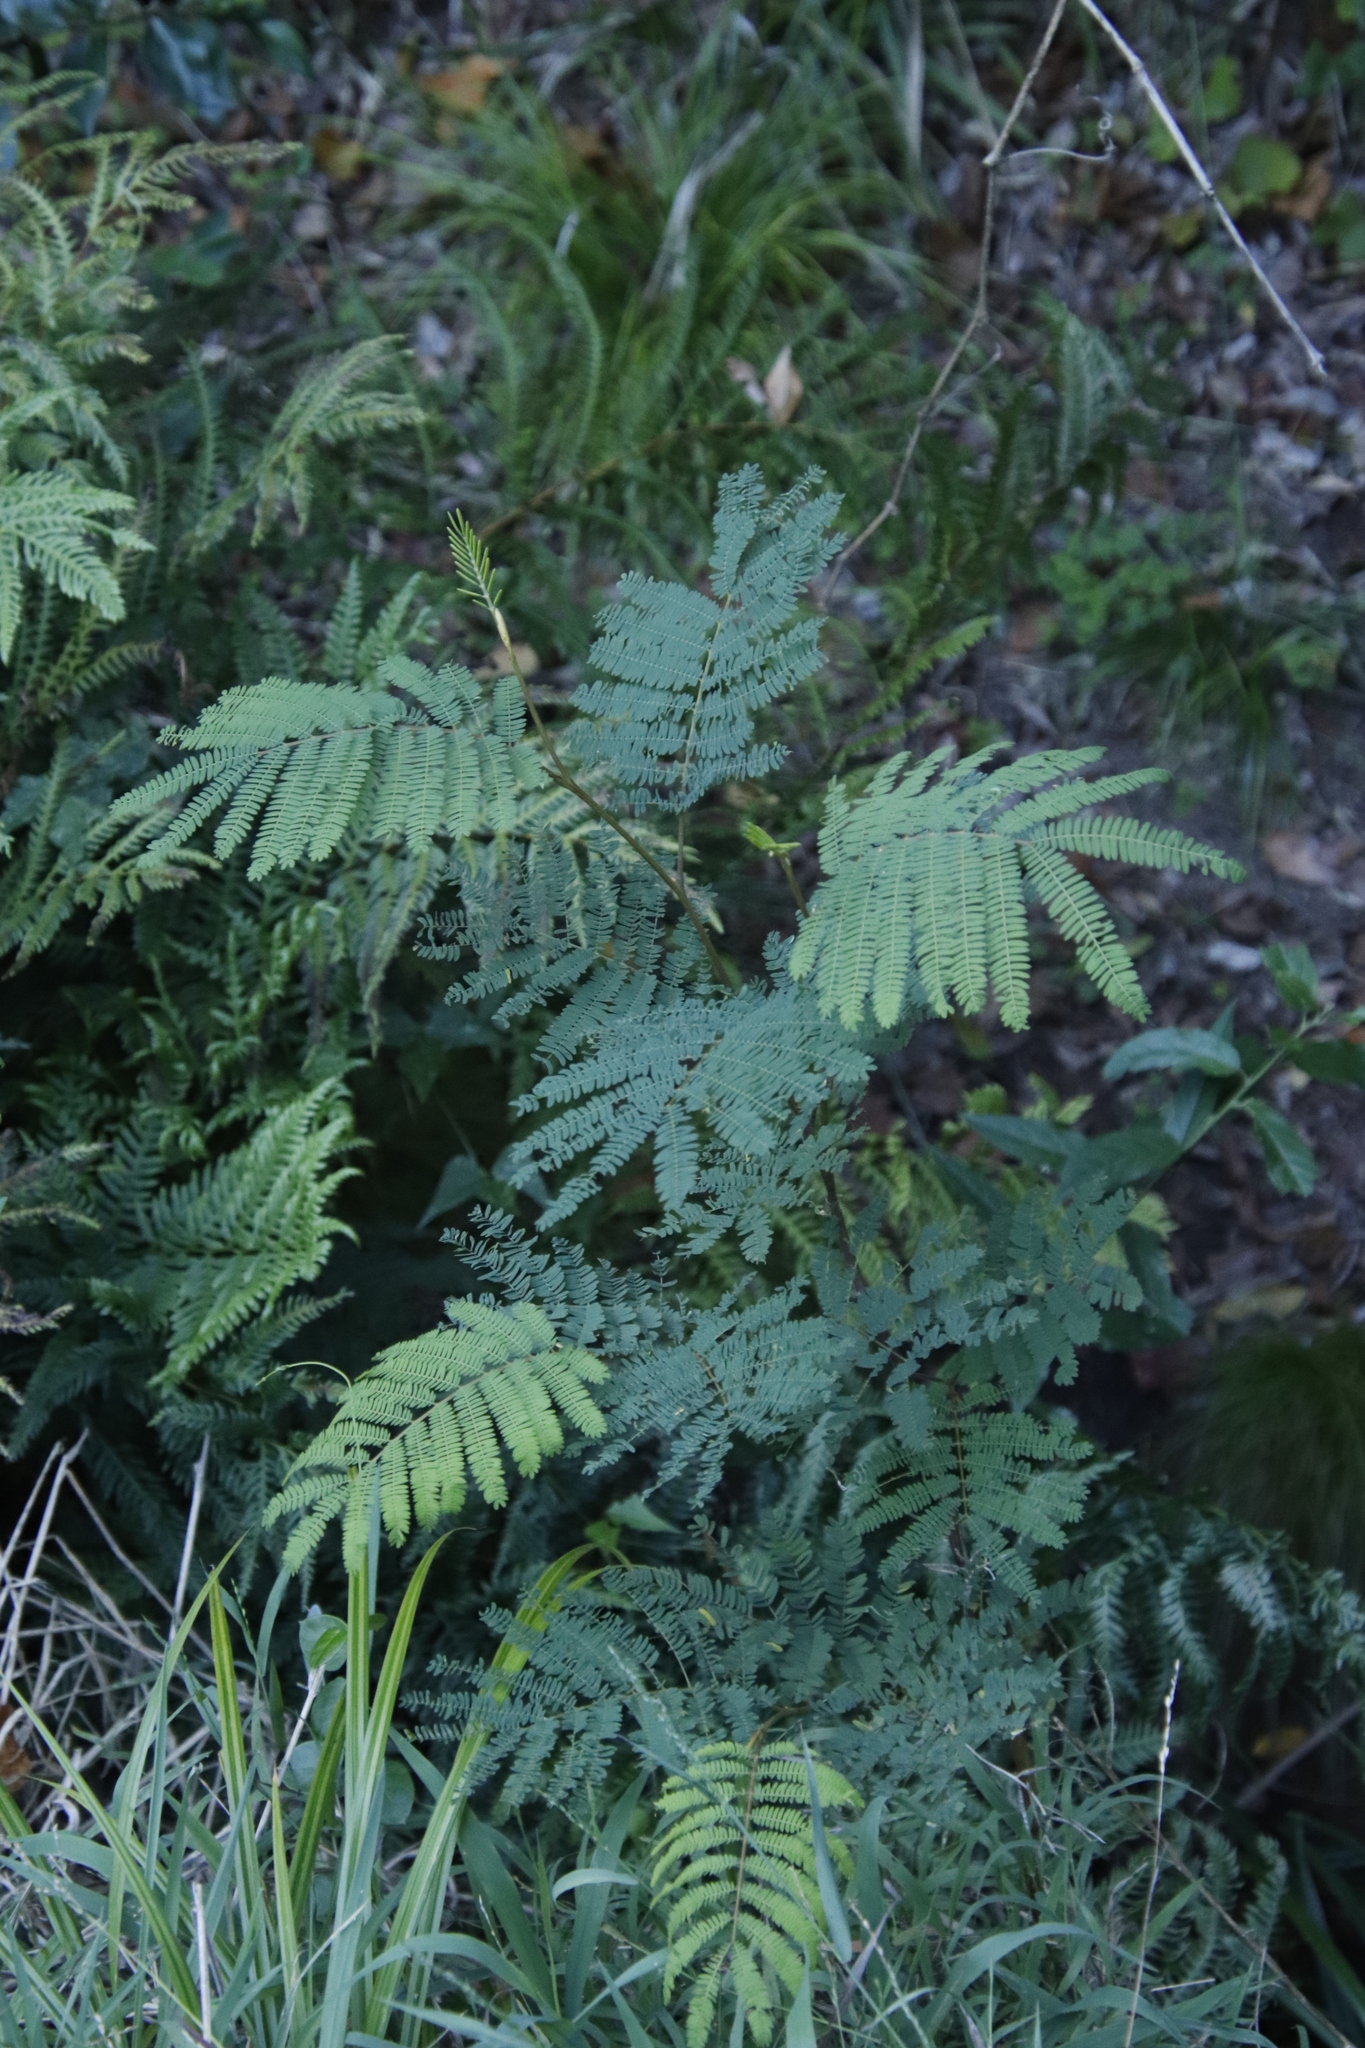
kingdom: Plantae
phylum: Tracheophyta
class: Magnoliopsida
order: Fabales
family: Fabaceae
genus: Paraserianthes
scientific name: Paraserianthes lophantha
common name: Plume albizia
